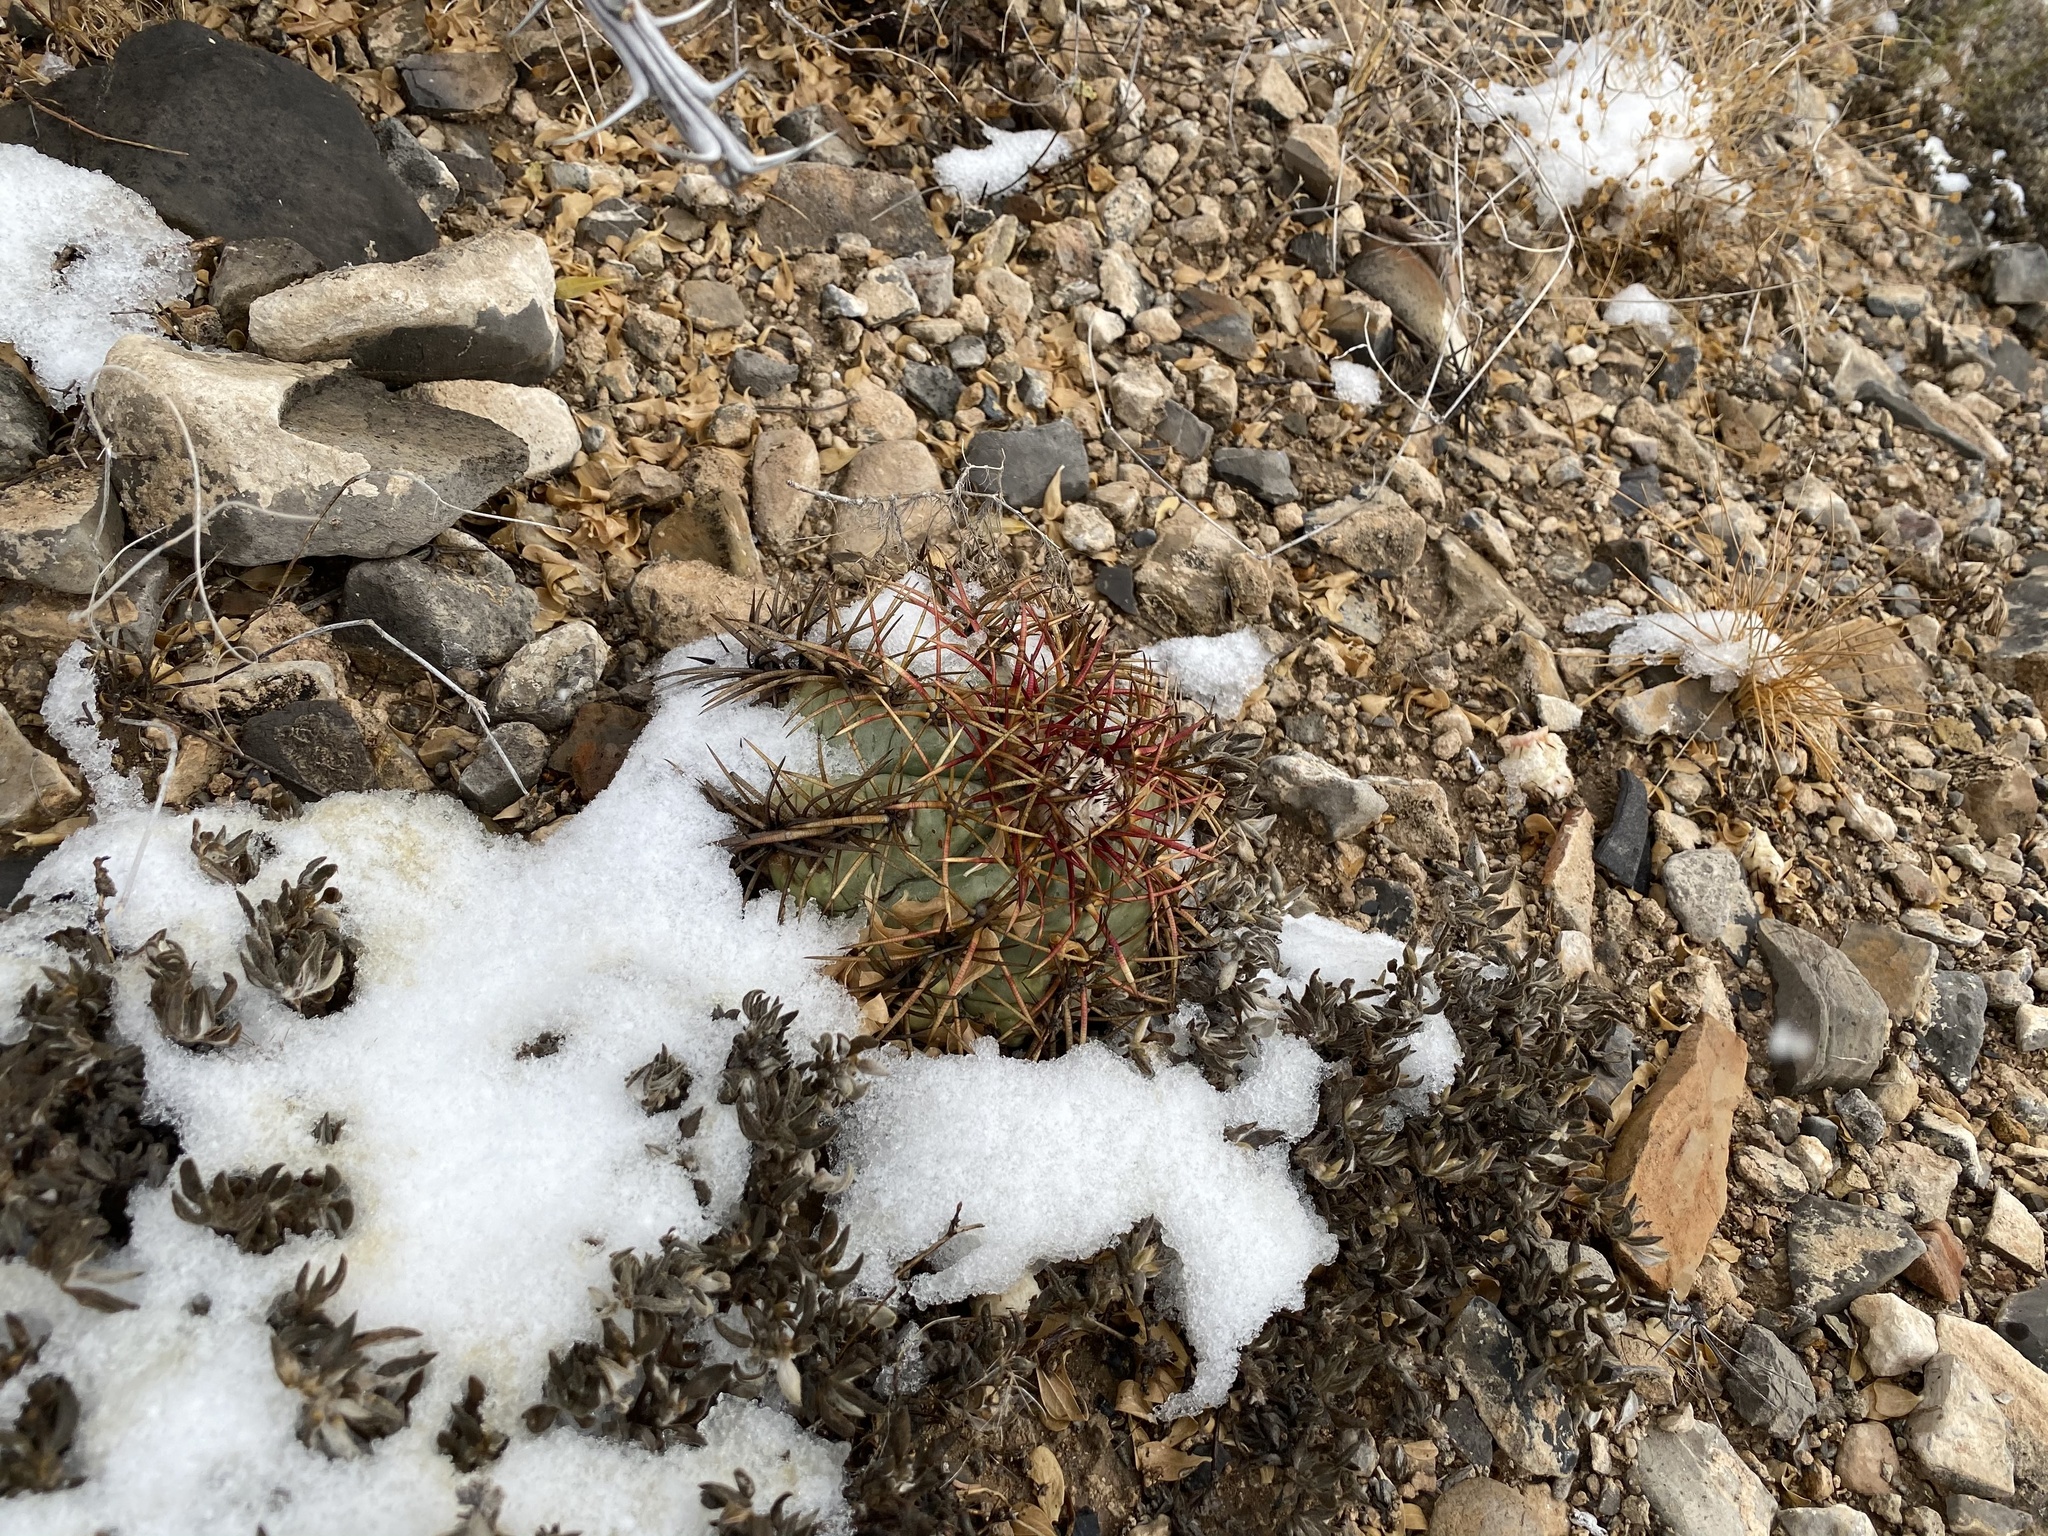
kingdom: Plantae
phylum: Tracheophyta
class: Magnoliopsida
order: Caryophyllales
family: Cactaceae
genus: Echinocactus
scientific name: Echinocactus horizonthalonius
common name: Devilshead
